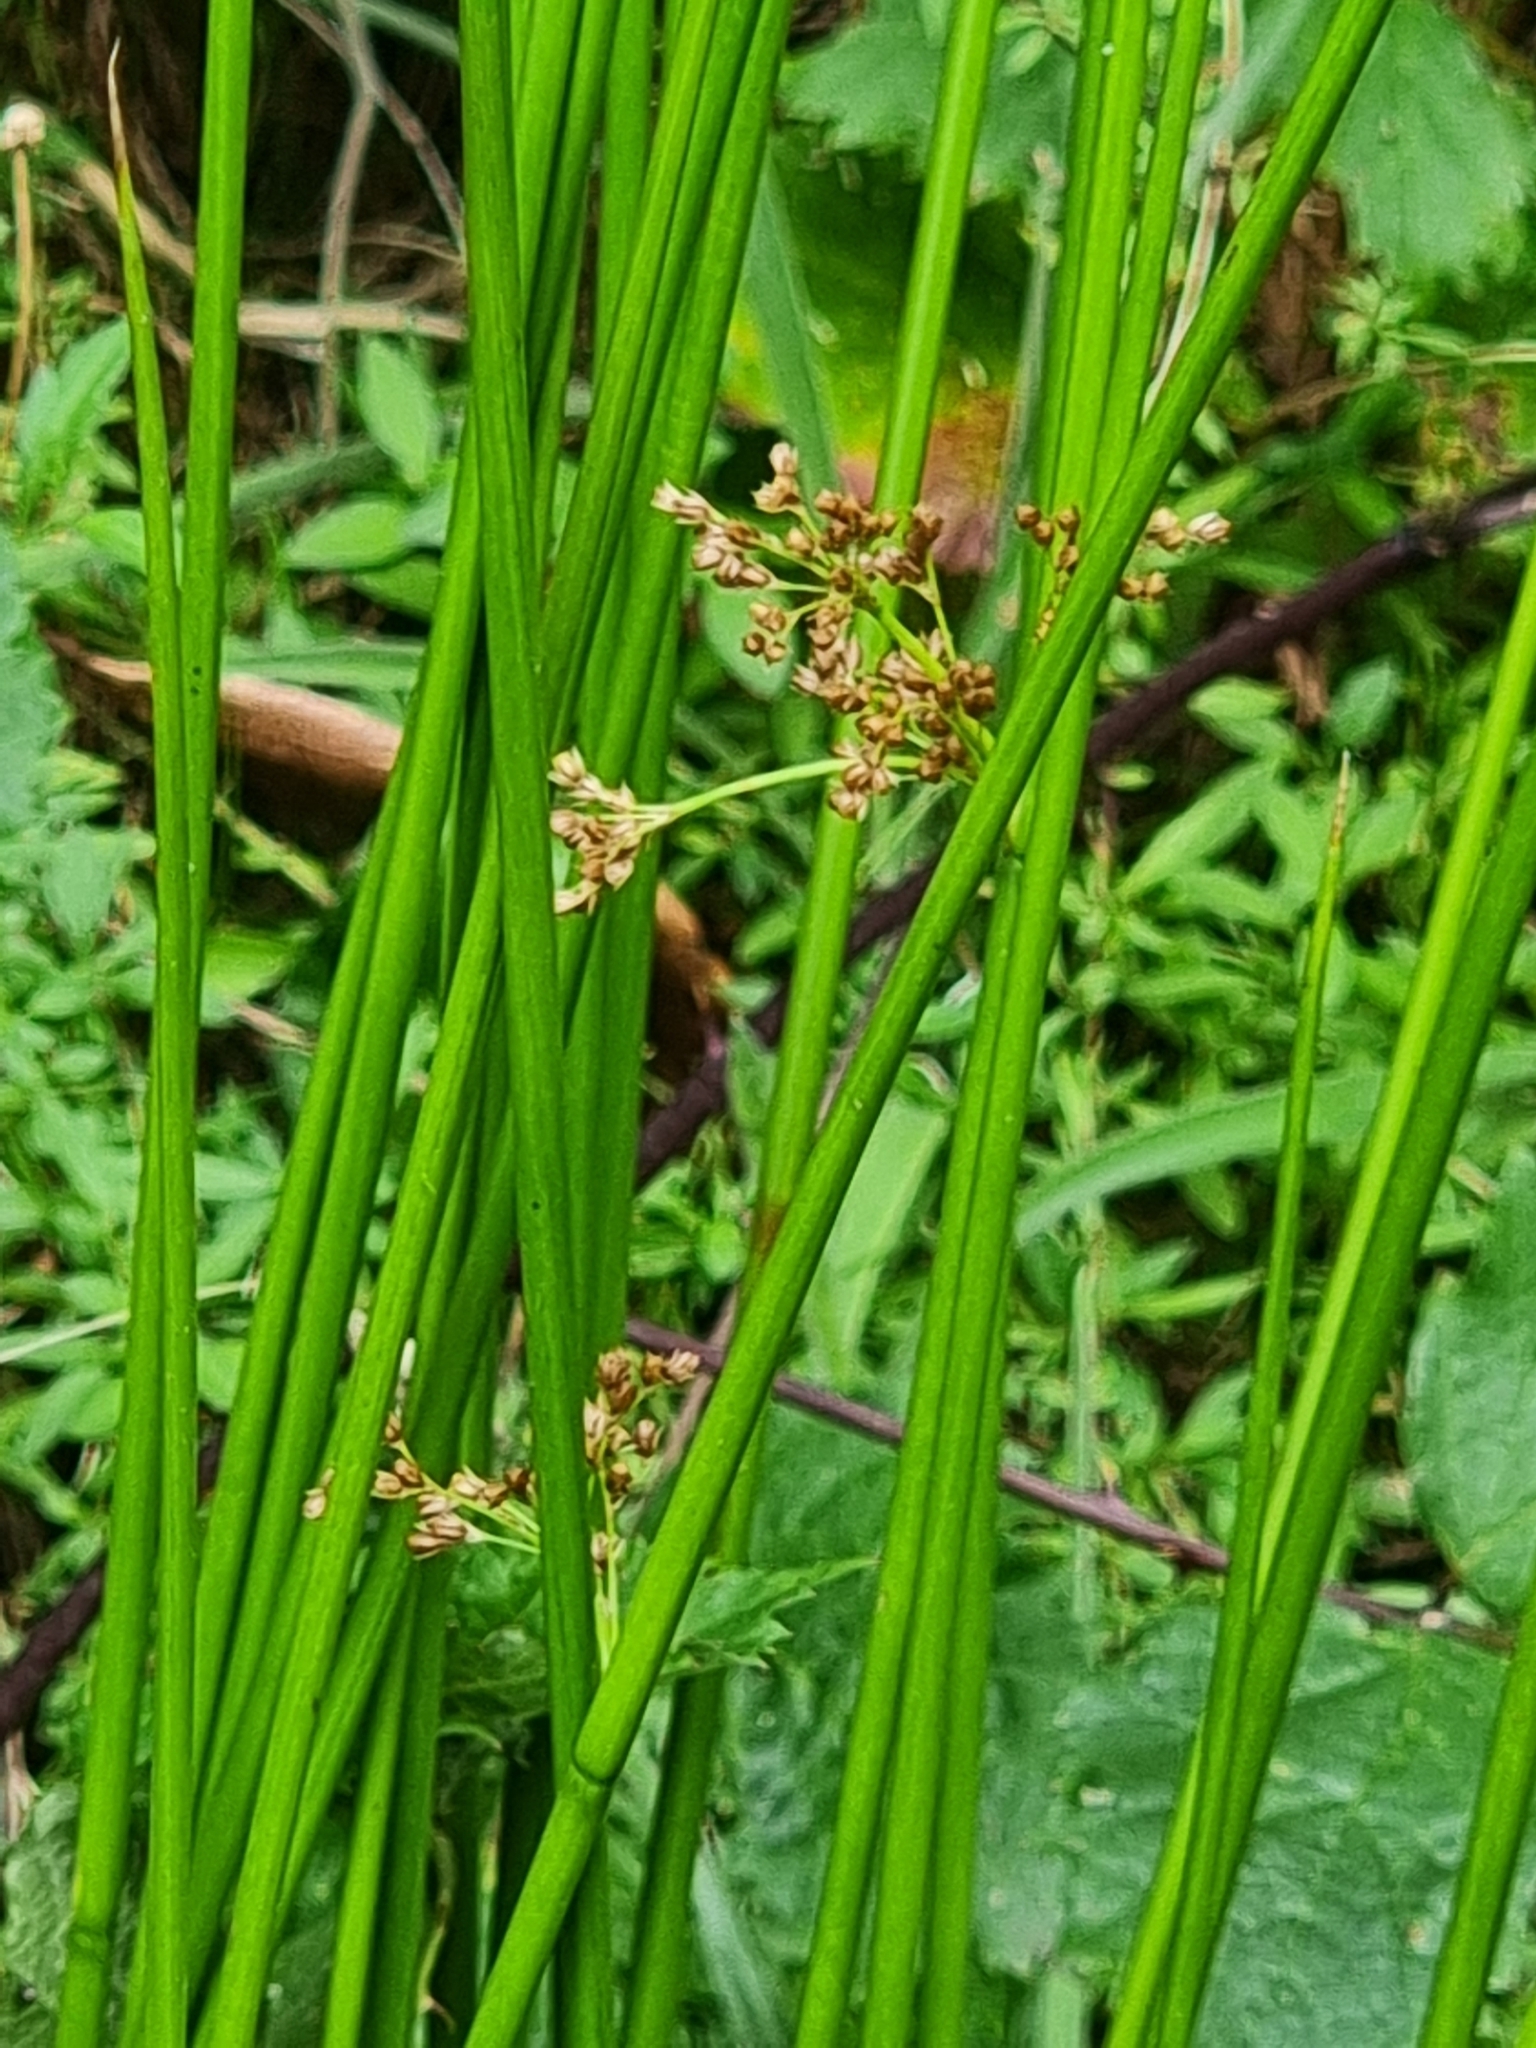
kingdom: Plantae
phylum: Tracheophyta
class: Liliopsida
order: Poales
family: Juncaceae
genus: Juncus
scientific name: Juncus effusus
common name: Soft rush
